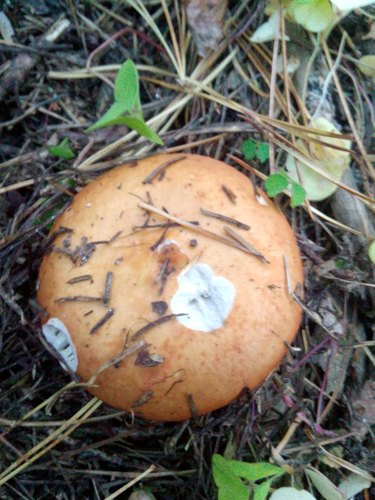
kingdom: Fungi
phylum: Basidiomycota
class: Agaricomycetes
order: Russulales
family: Russulaceae
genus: Russula
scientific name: Russula
